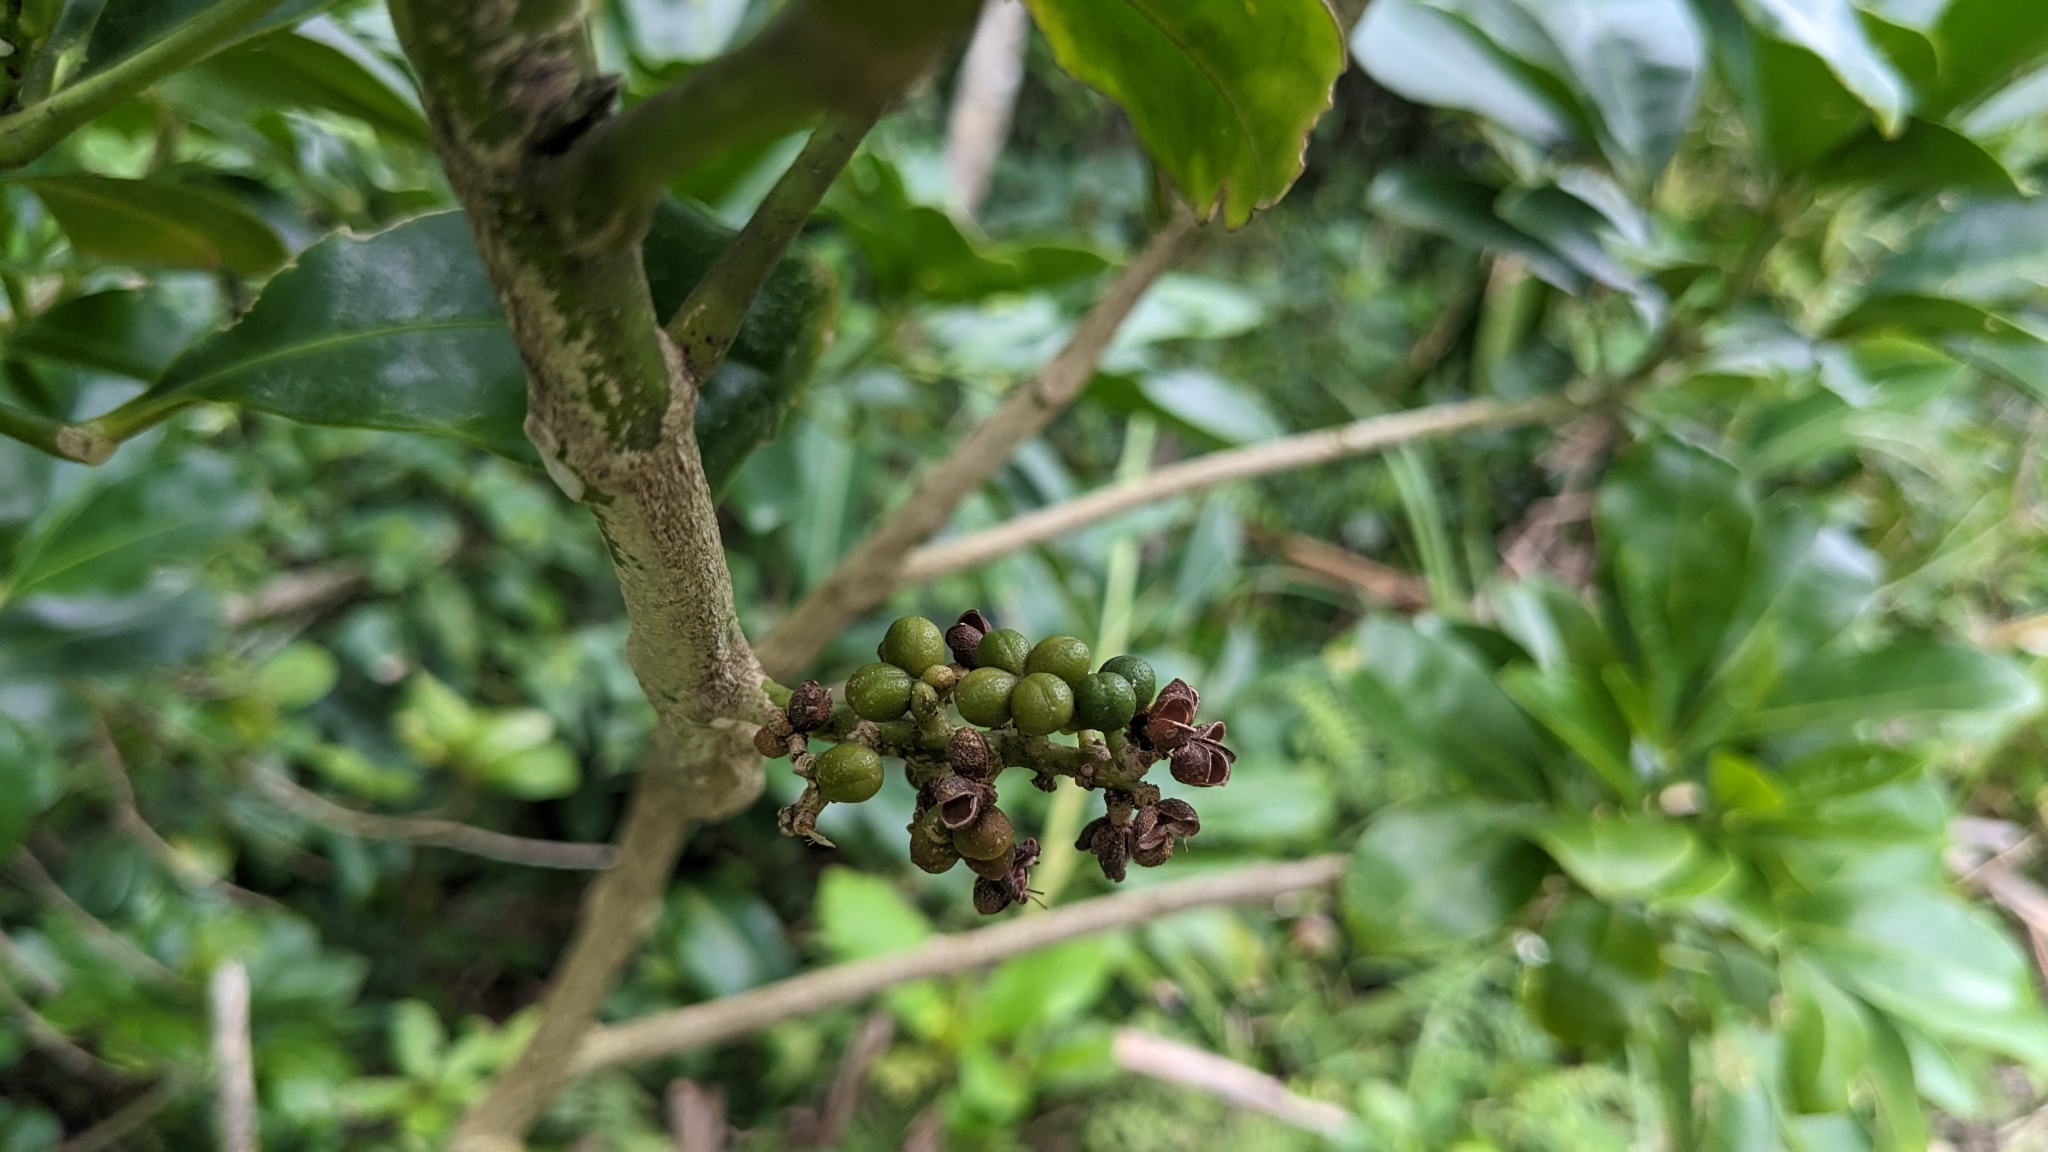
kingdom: Plantae
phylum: Tracheophyta
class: Magnoliopsida
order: Sapindales
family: Rutaceae
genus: Melicope
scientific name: Melicope triphylla
